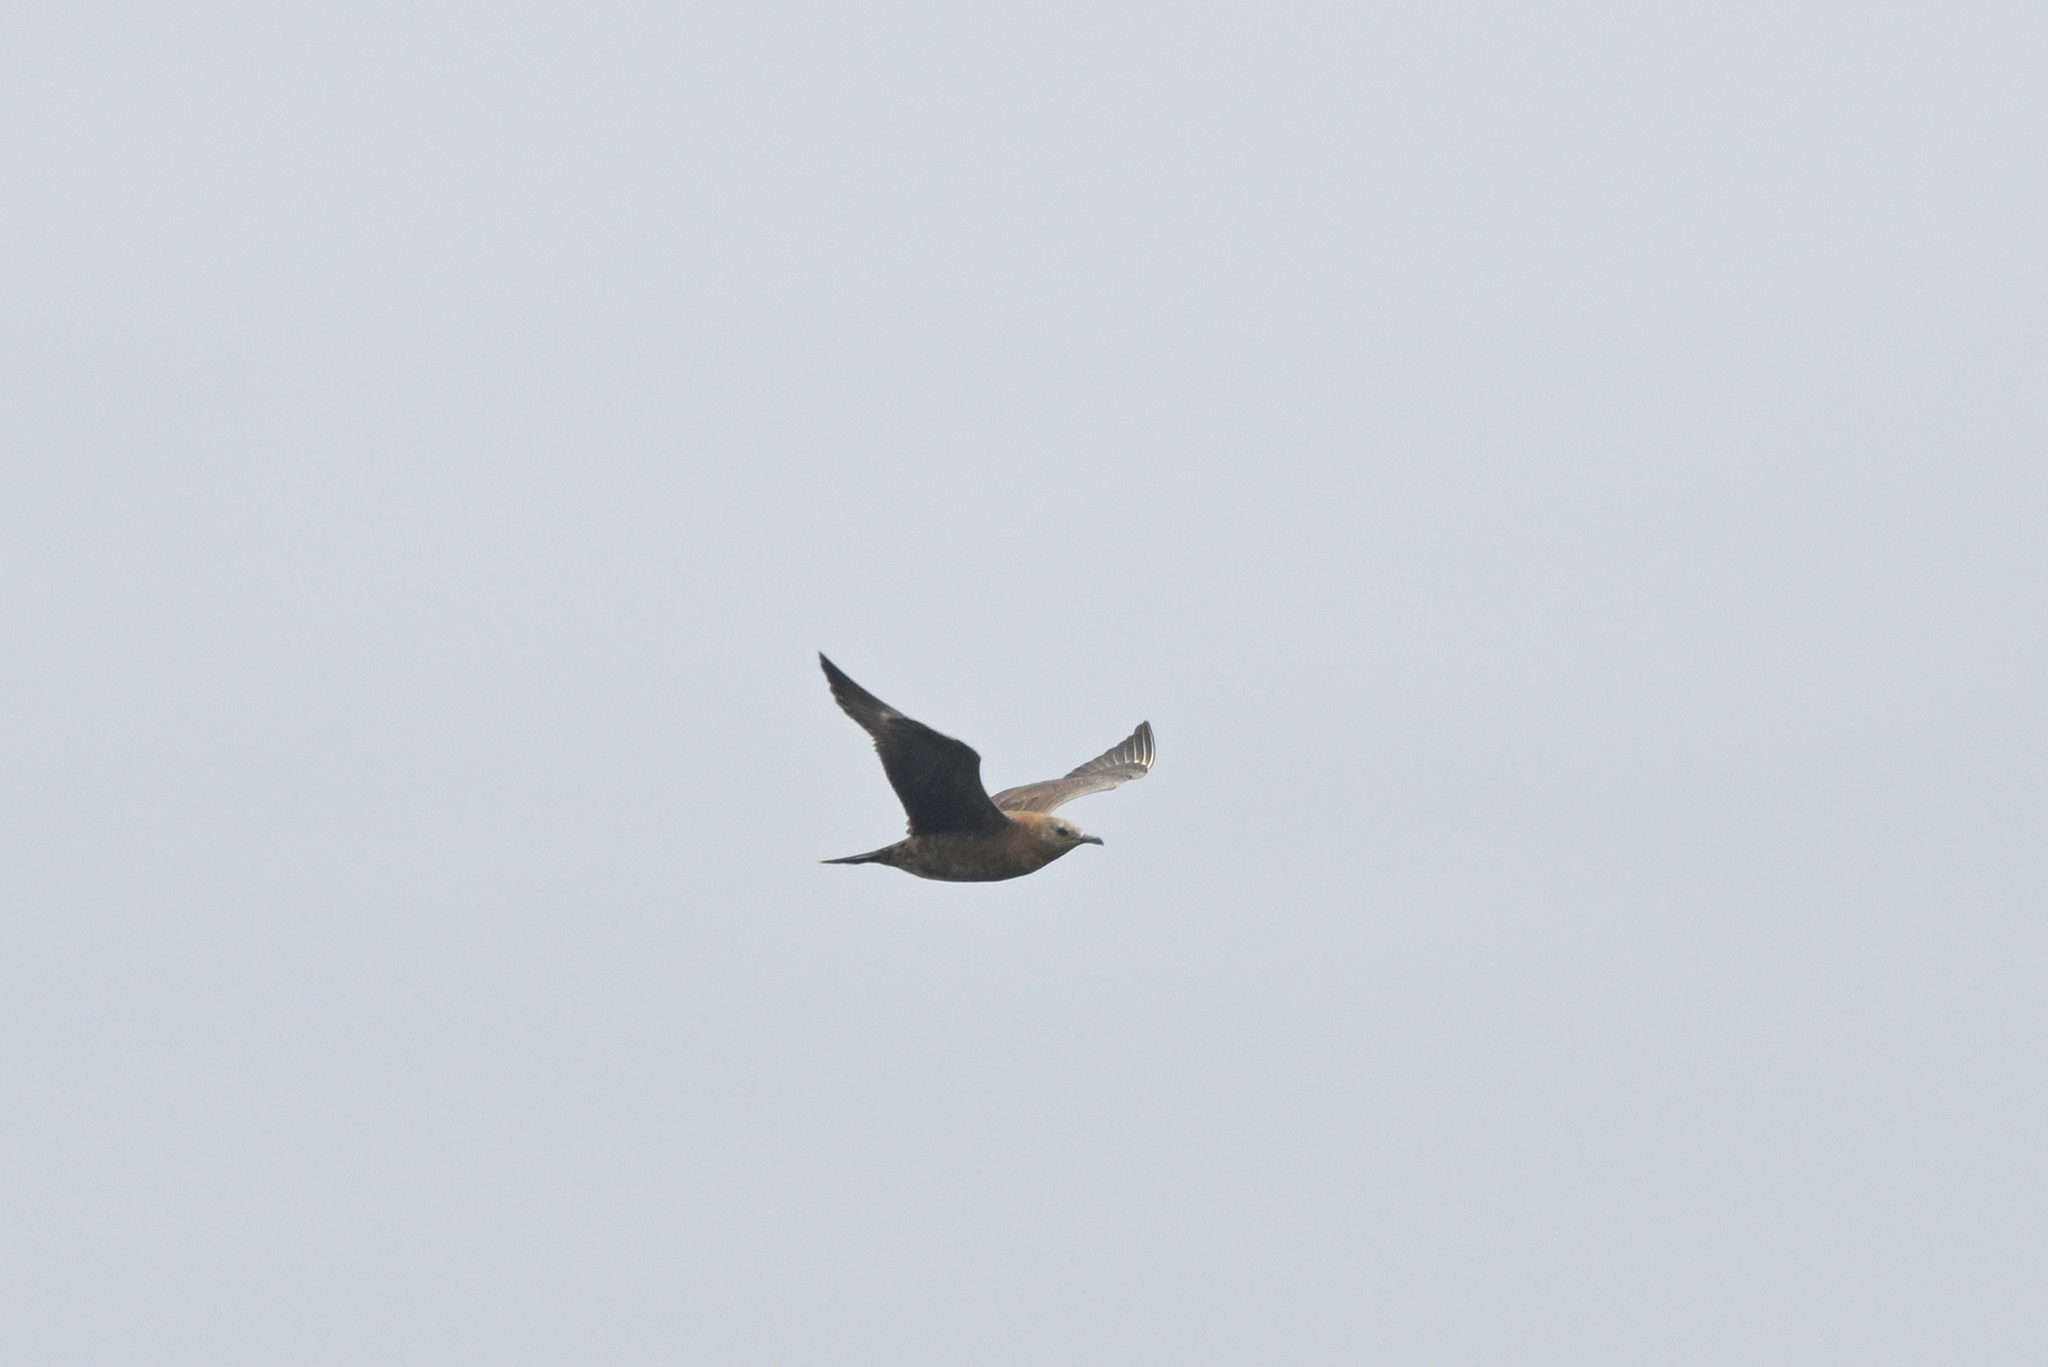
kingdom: Animalia
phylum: Chordata
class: Aves
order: Charadriiformes
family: Stercorariidae
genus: Stercorarius
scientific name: Stercorarius parasiticus
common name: Parasitic jaeger
